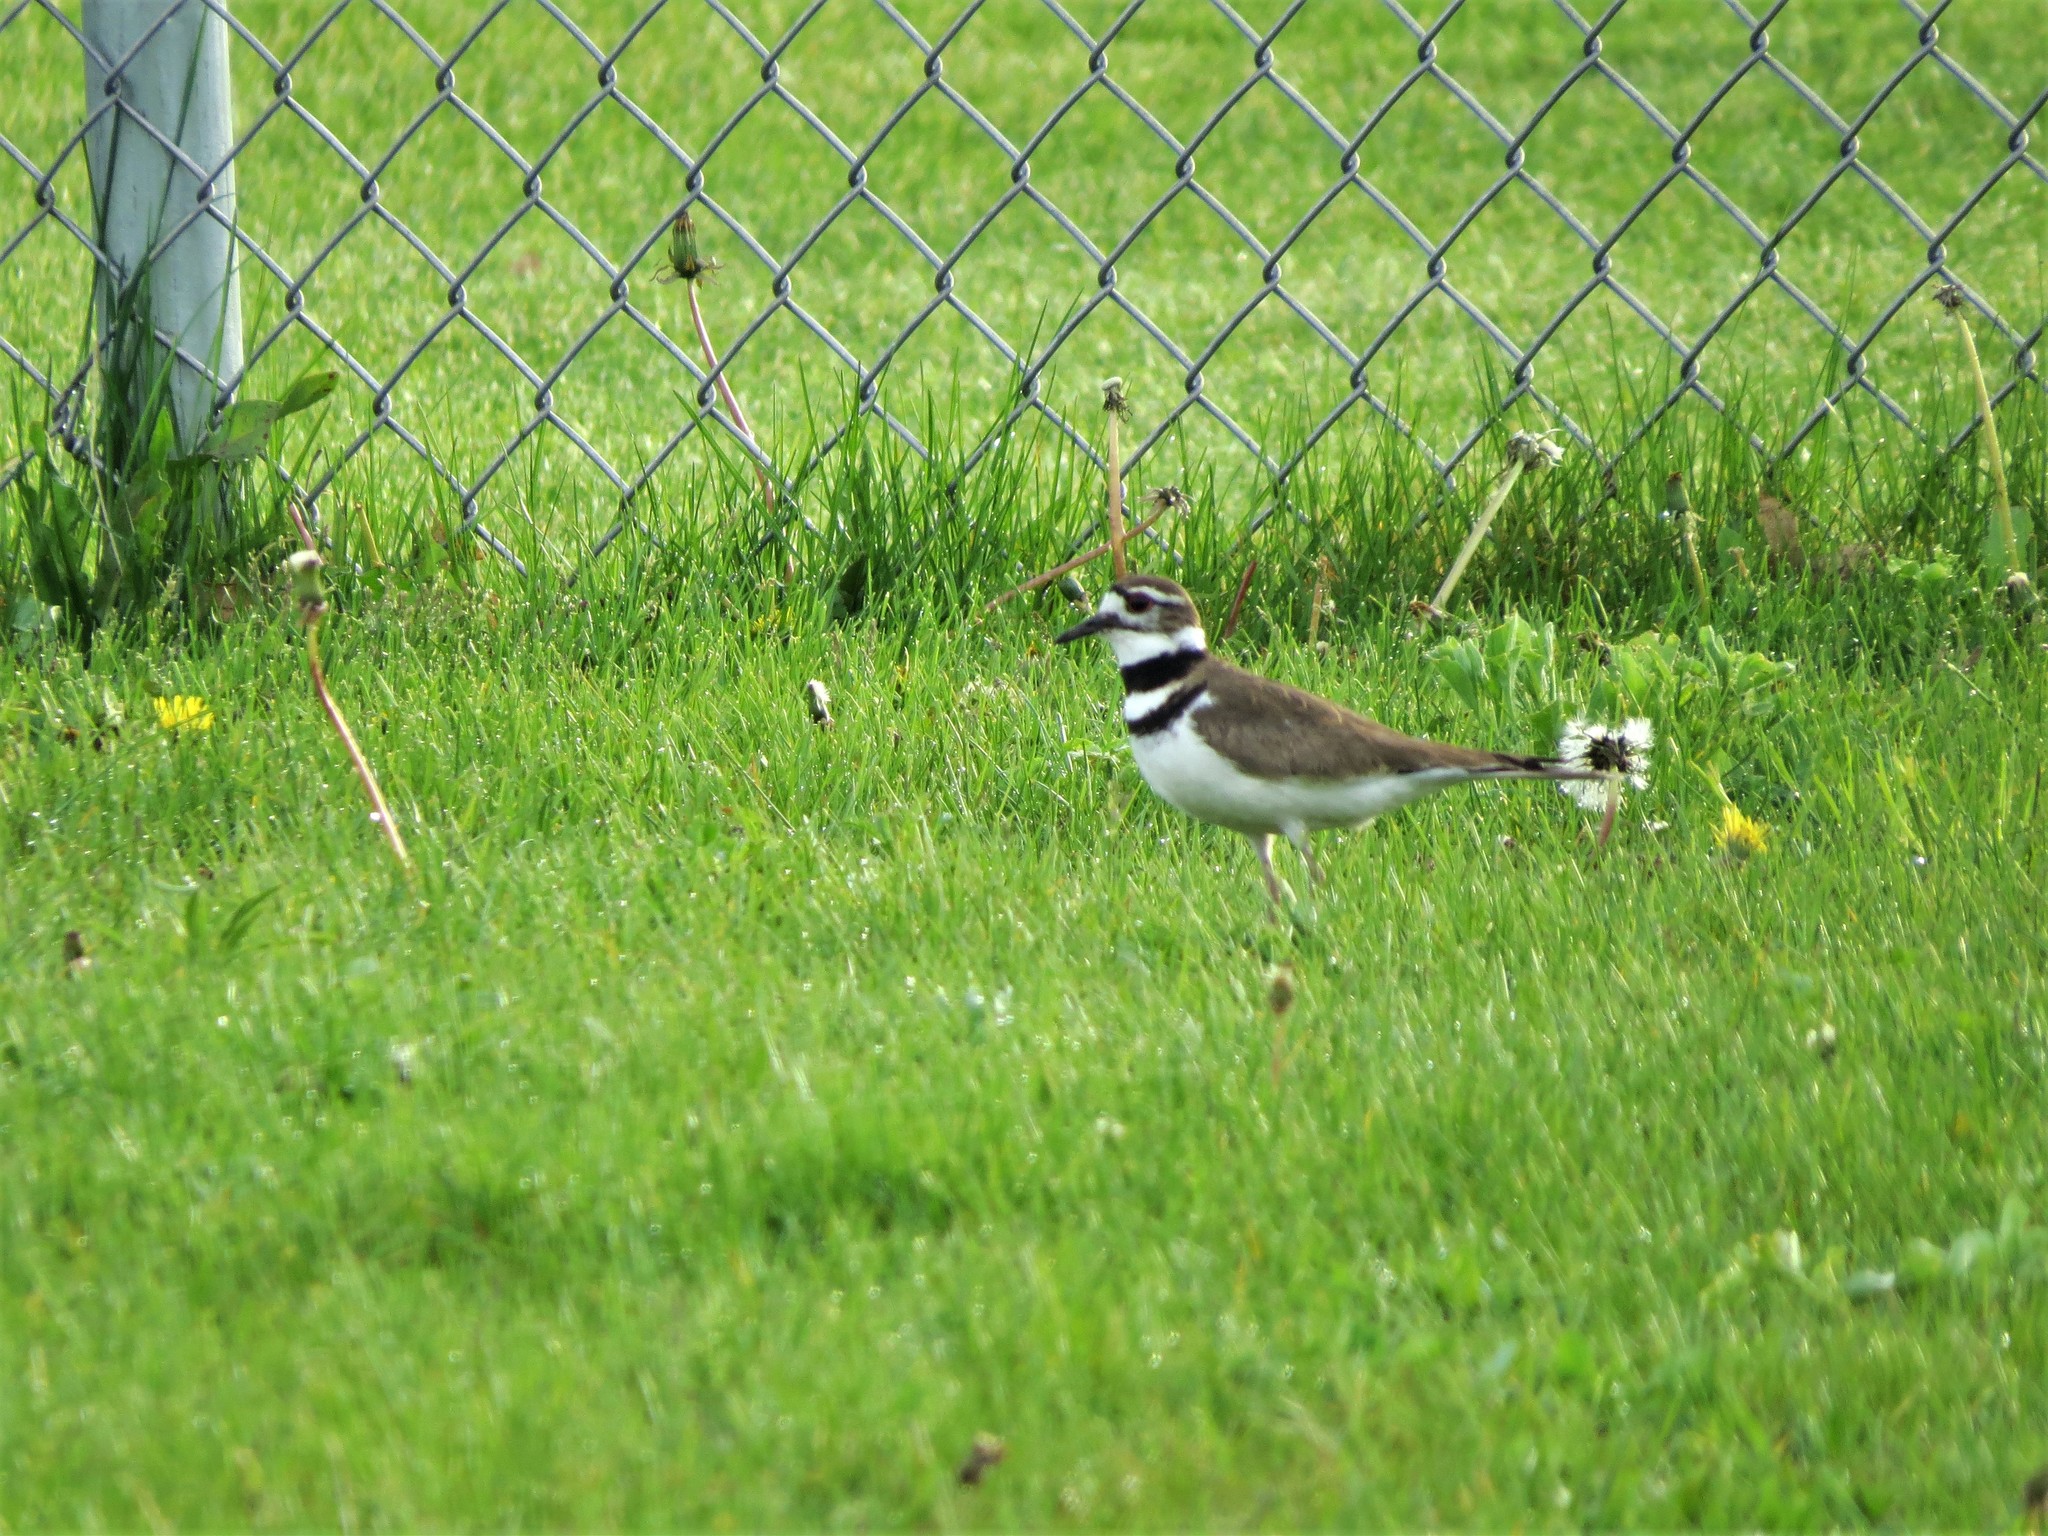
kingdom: Animalia
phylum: Chordata
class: Aves
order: Charadriiformes
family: Charadriidae
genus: Charadrius
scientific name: Charadrius vociferus
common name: Killdeer
